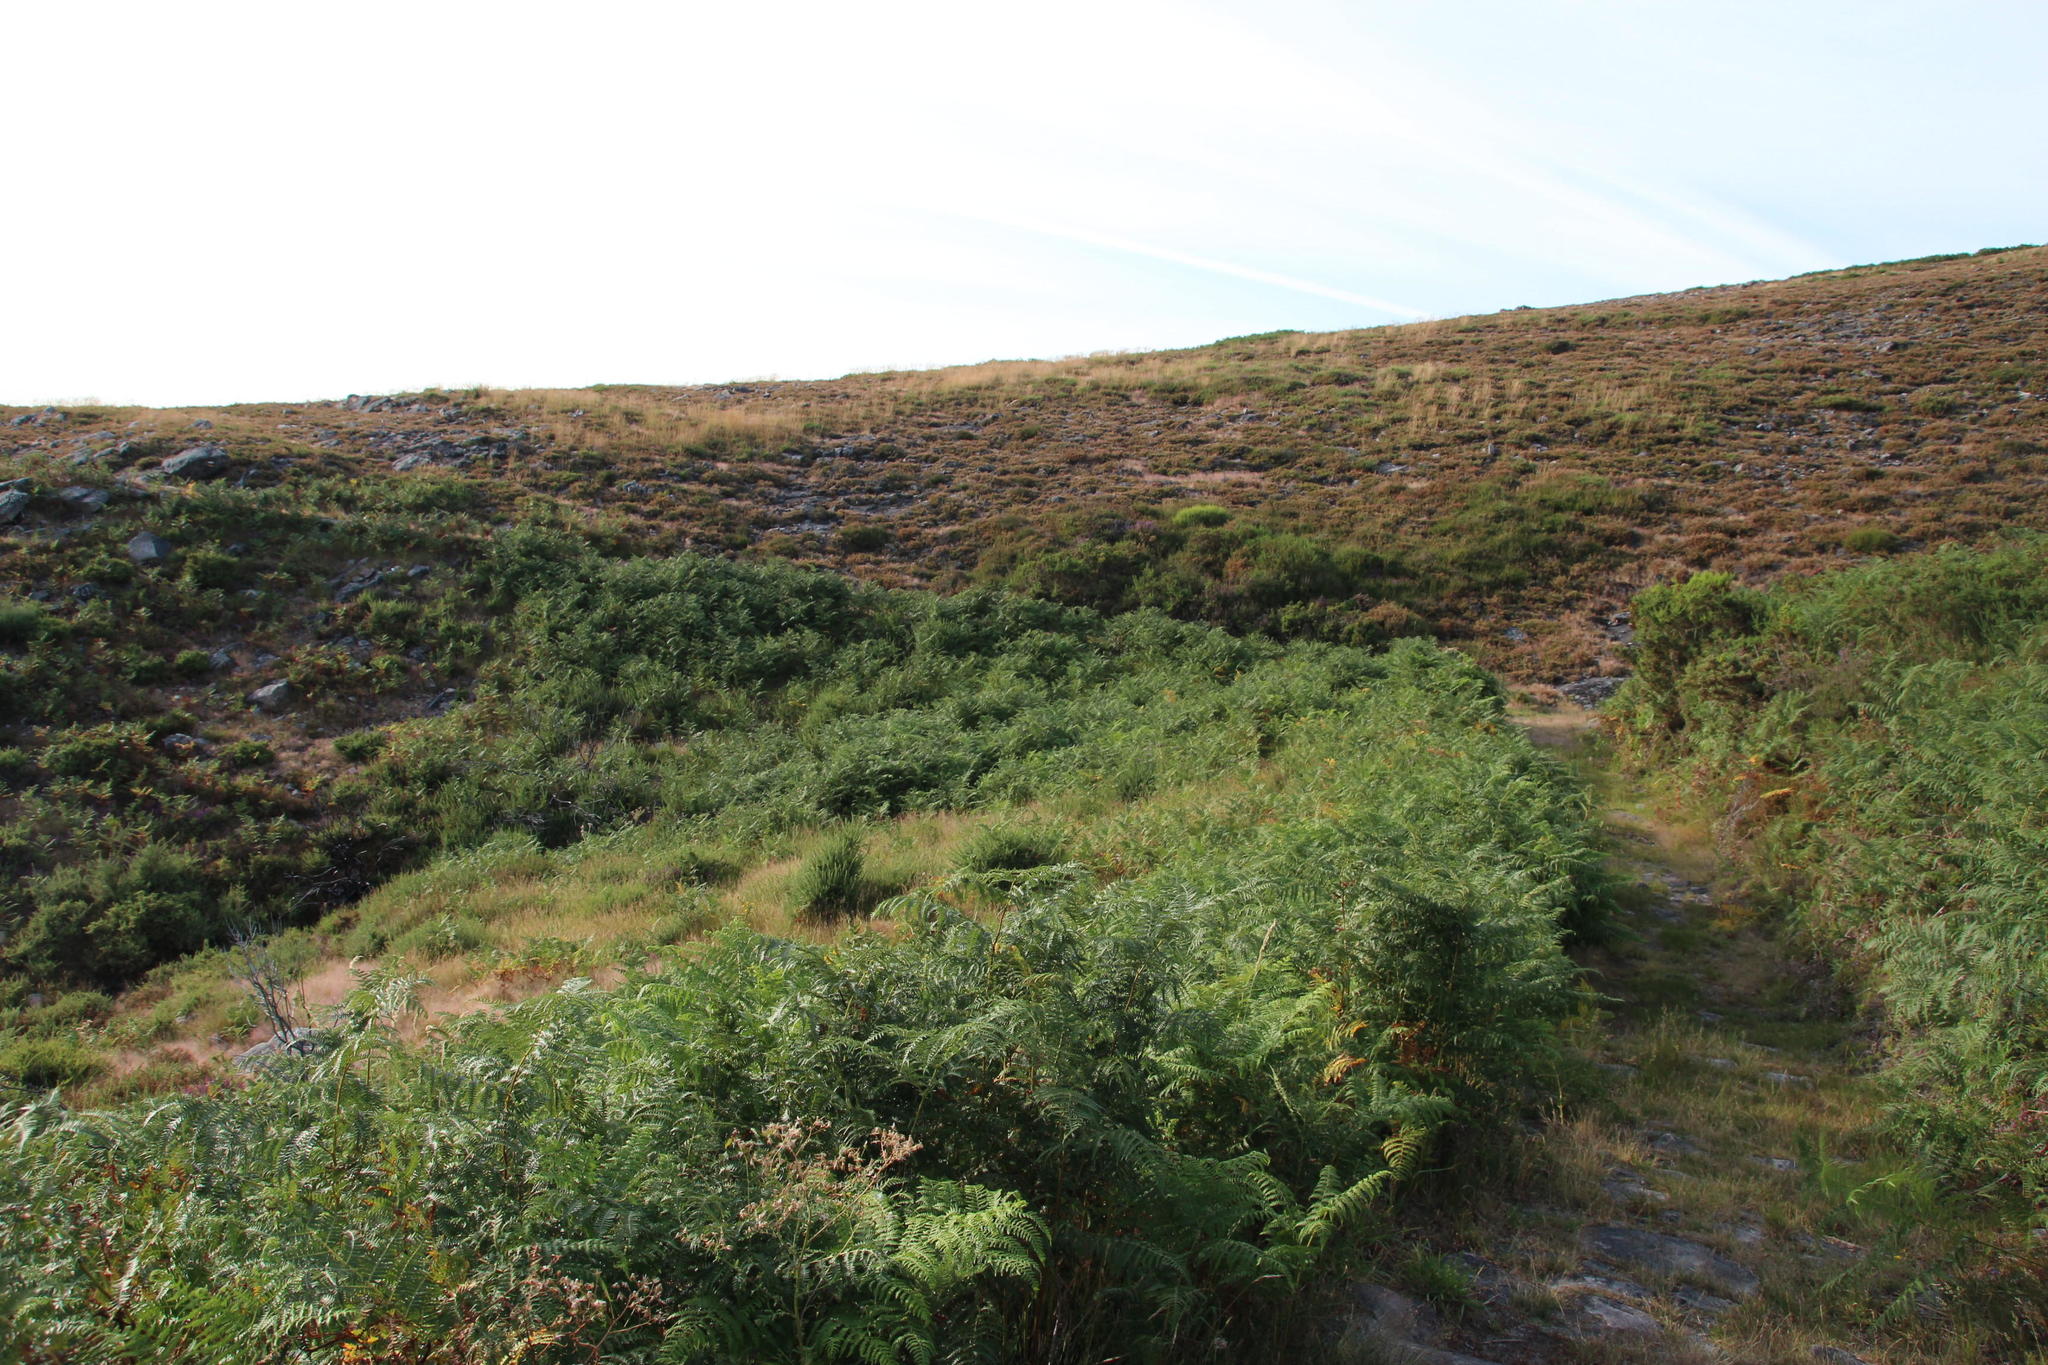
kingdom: Plantae
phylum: Tracheophyta
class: Polypodiopsida
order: Polypodiales
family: Dennstaedtiaceae
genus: Pteridium
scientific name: Pteridium aquilinum
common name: Bracken
